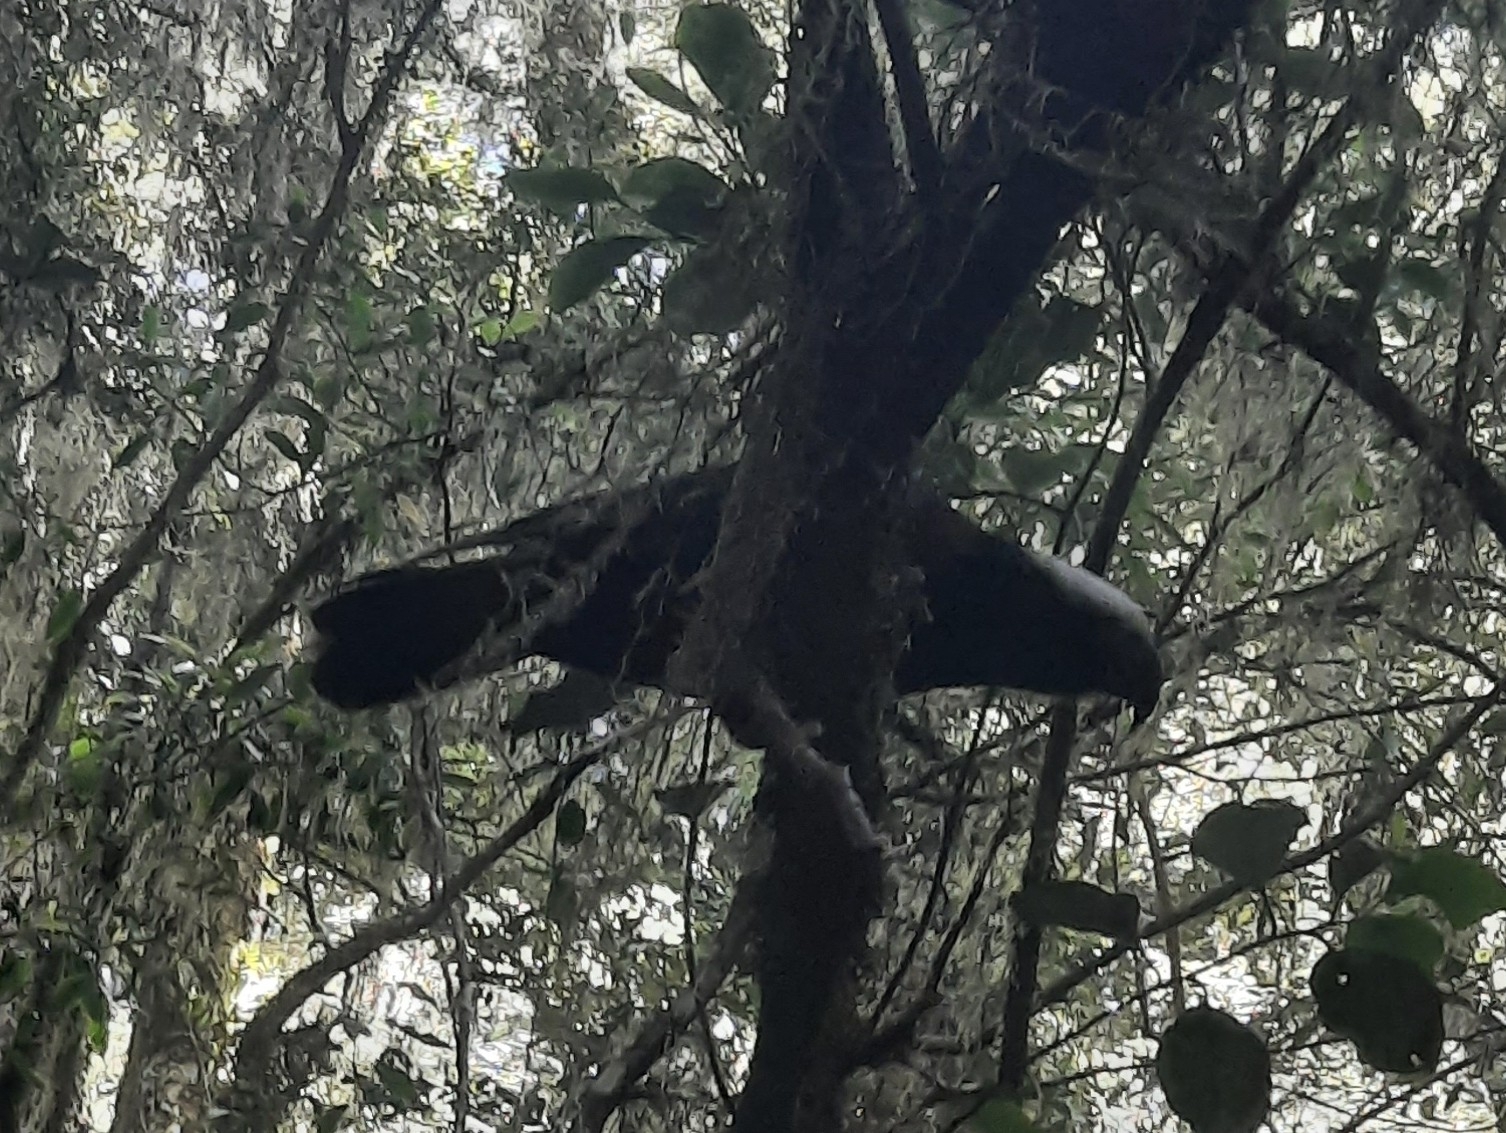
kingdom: Animalia
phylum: Chordata
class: Aves
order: Psittaciformes
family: Psittacidae
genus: Nestor
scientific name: Nestor meridionalis
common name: New zealand kaka
